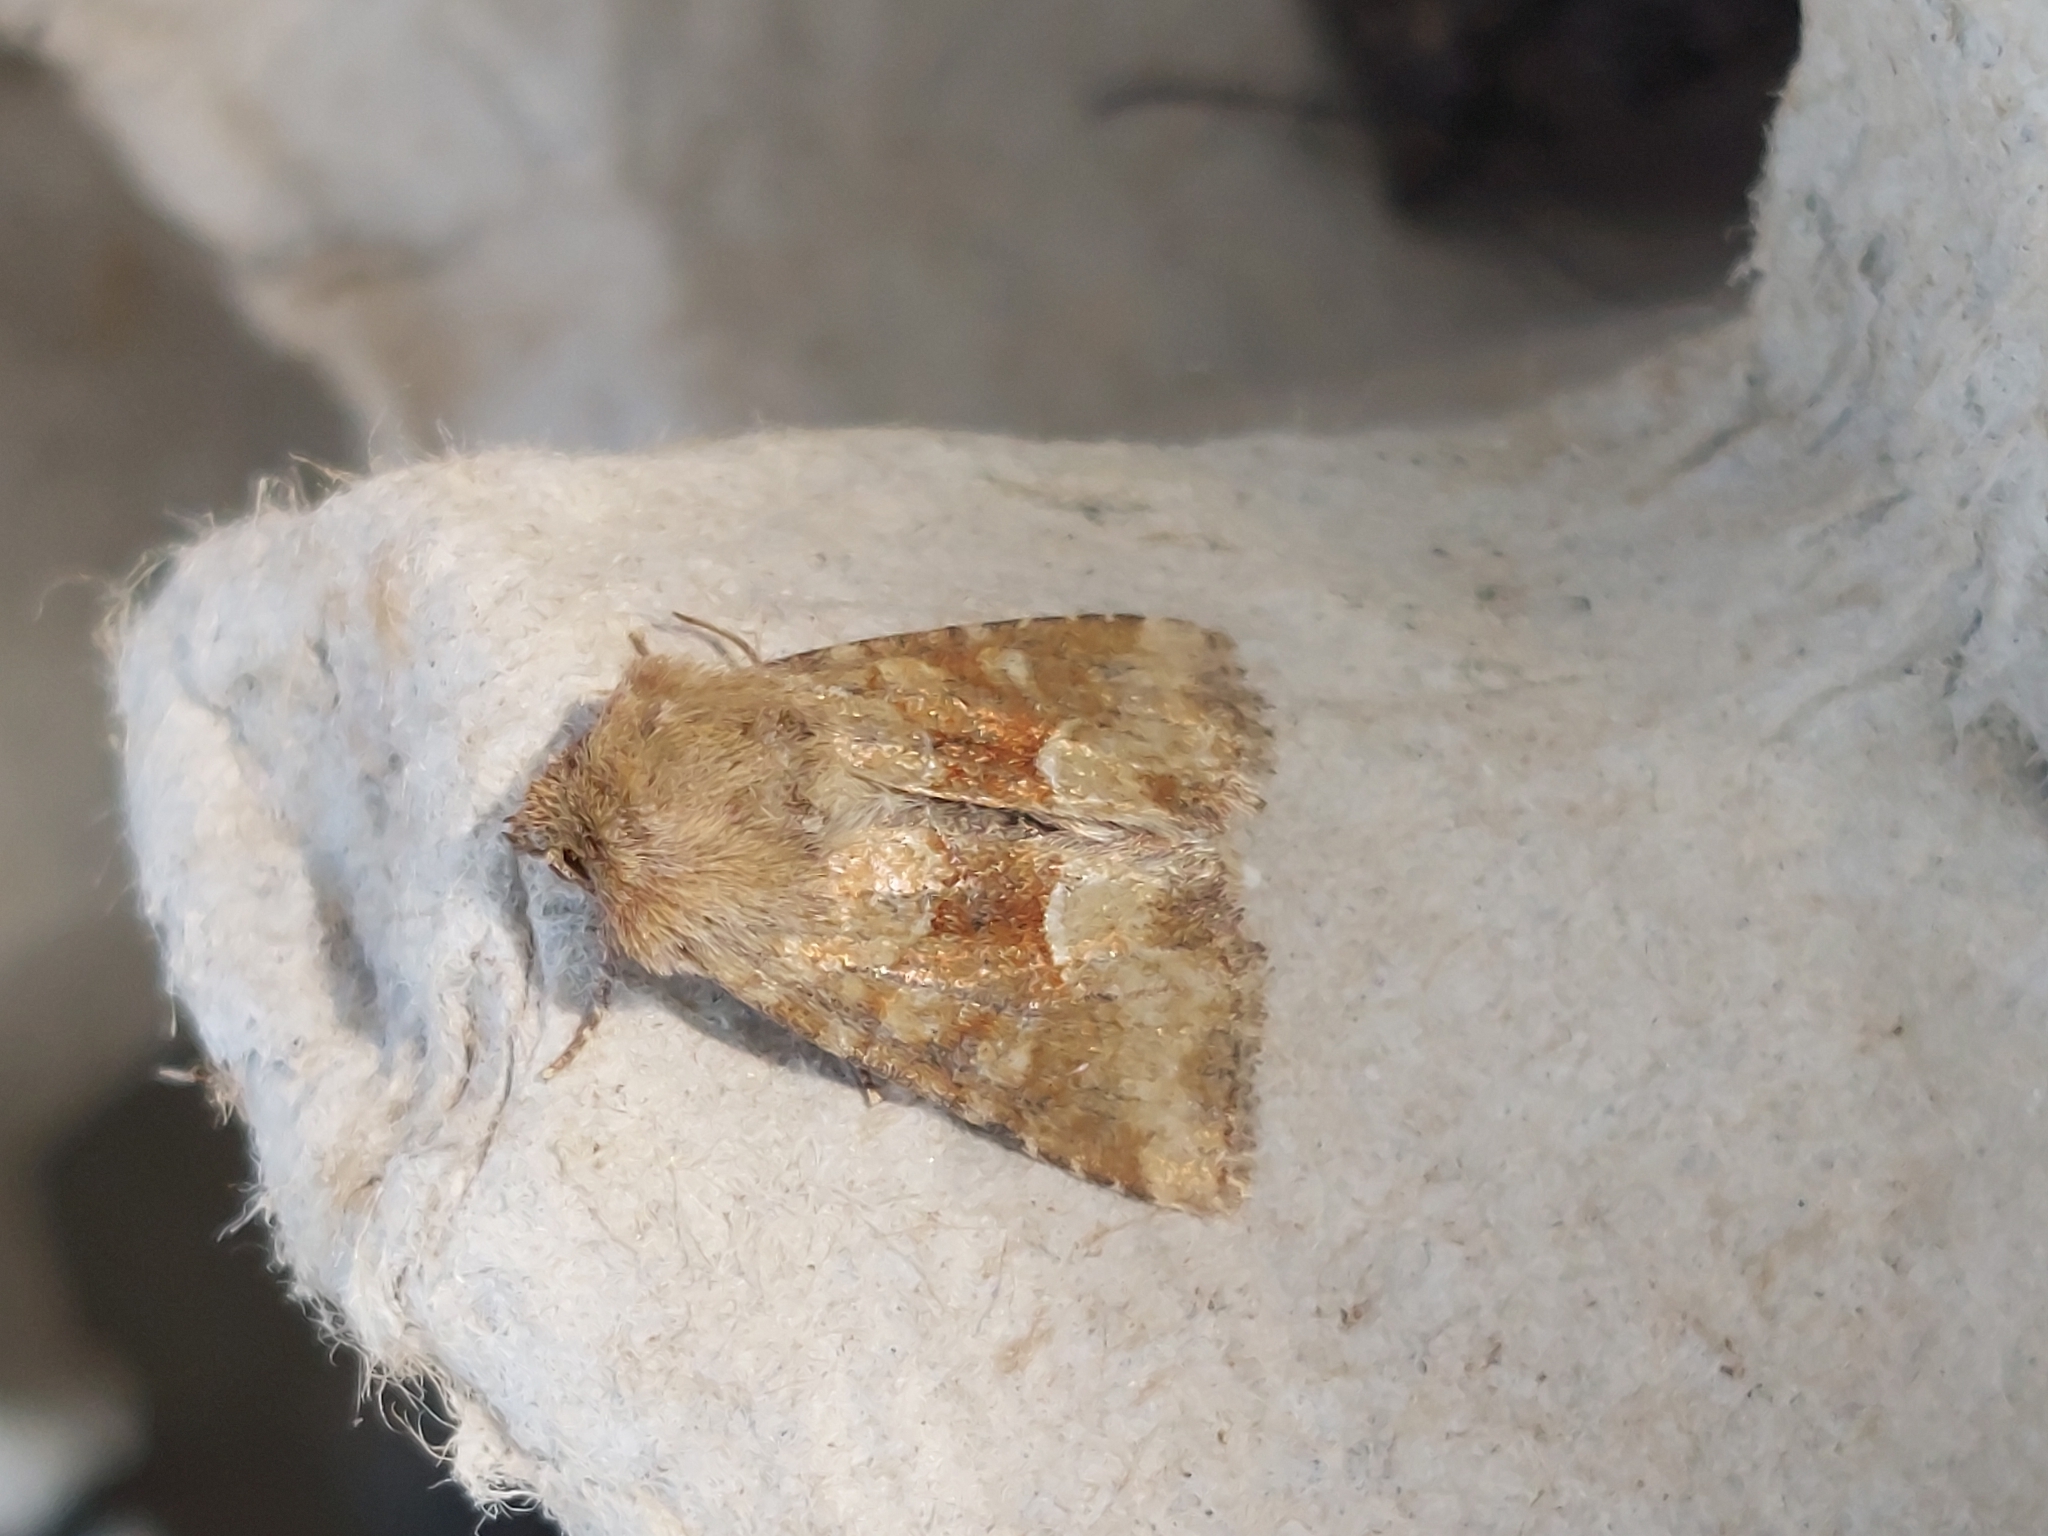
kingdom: Animalia
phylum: Arthropoda
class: Insecta
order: Lepidoptera
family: Noctuidae
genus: Oligia
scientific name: Oligia fasciuncula
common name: Middle-barred minor
